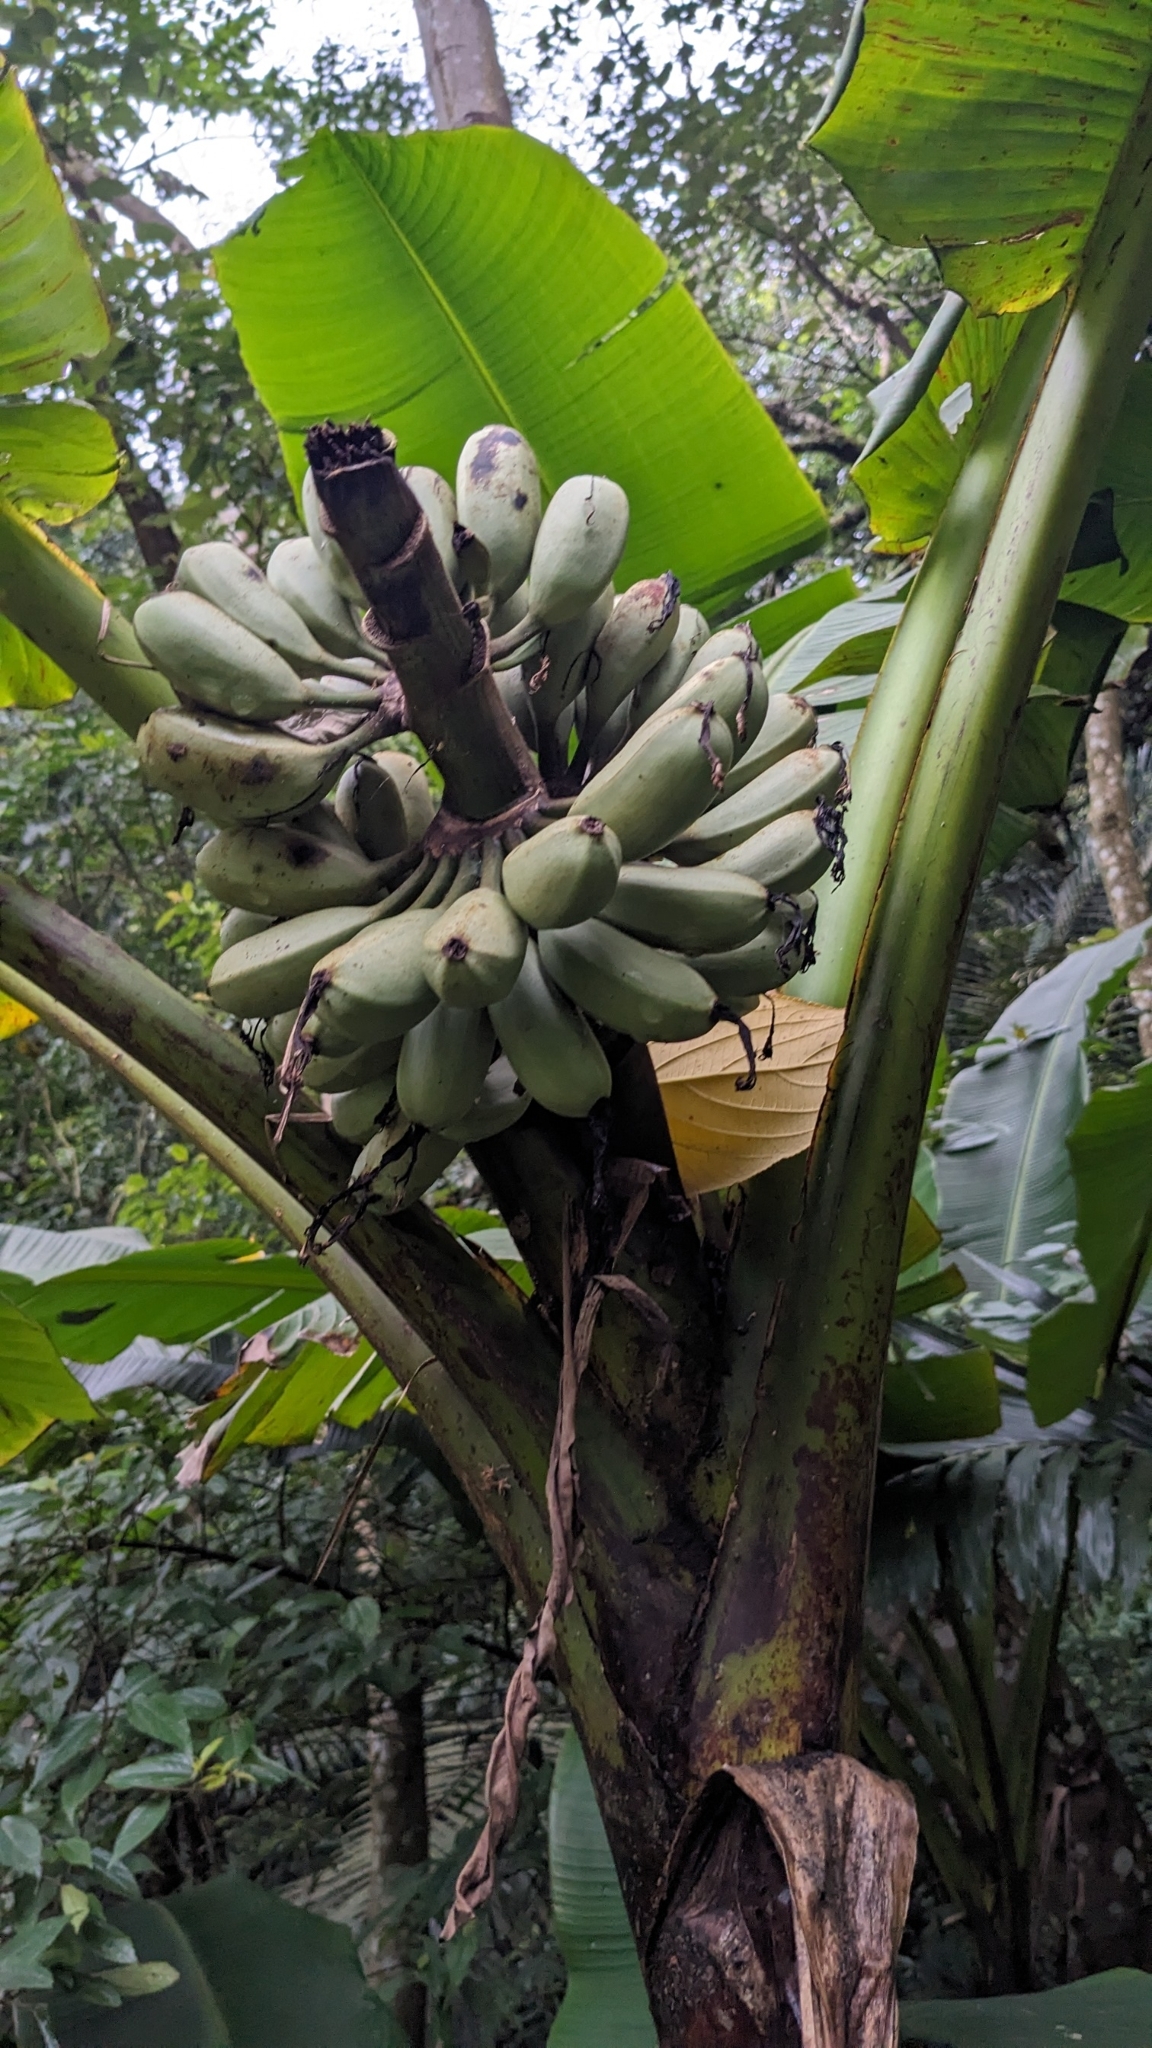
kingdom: Plantae
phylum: Tracheophyta
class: Liliopsida
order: Zingiberales
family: Musaceae
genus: Musa
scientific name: Musa itinerans
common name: Yunnan banana
